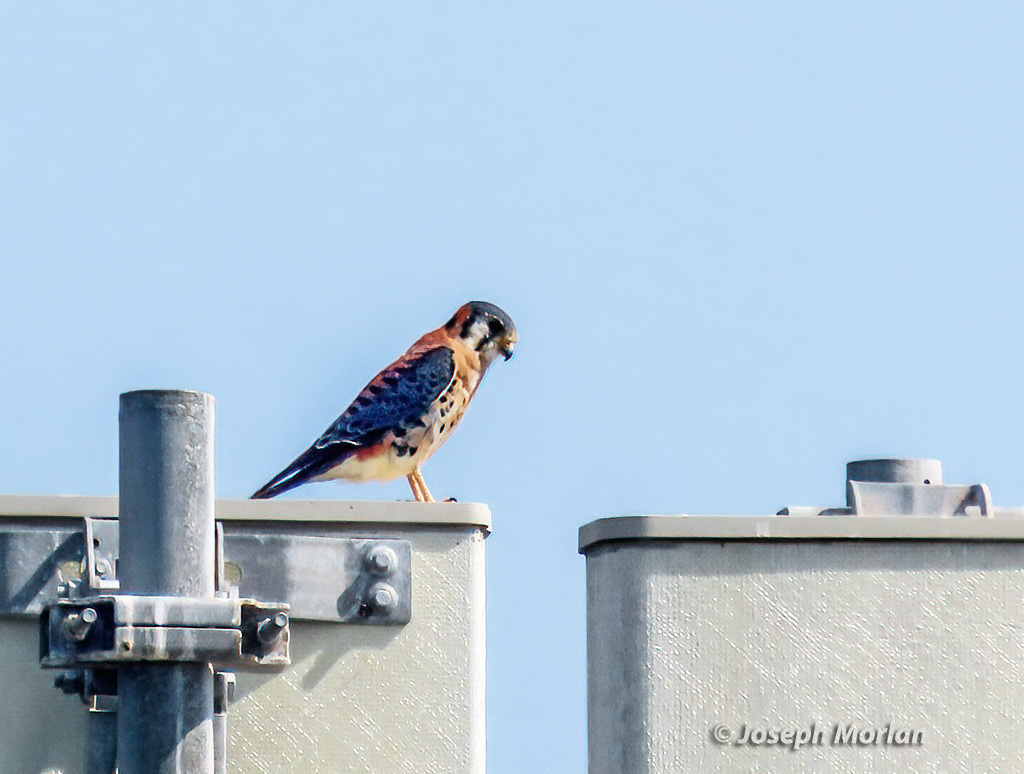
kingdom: Animalia
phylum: Chordata
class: Aves
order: Falconiformes
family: Falconidae
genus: Falco
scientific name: Falco sparverius
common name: American kestrel
